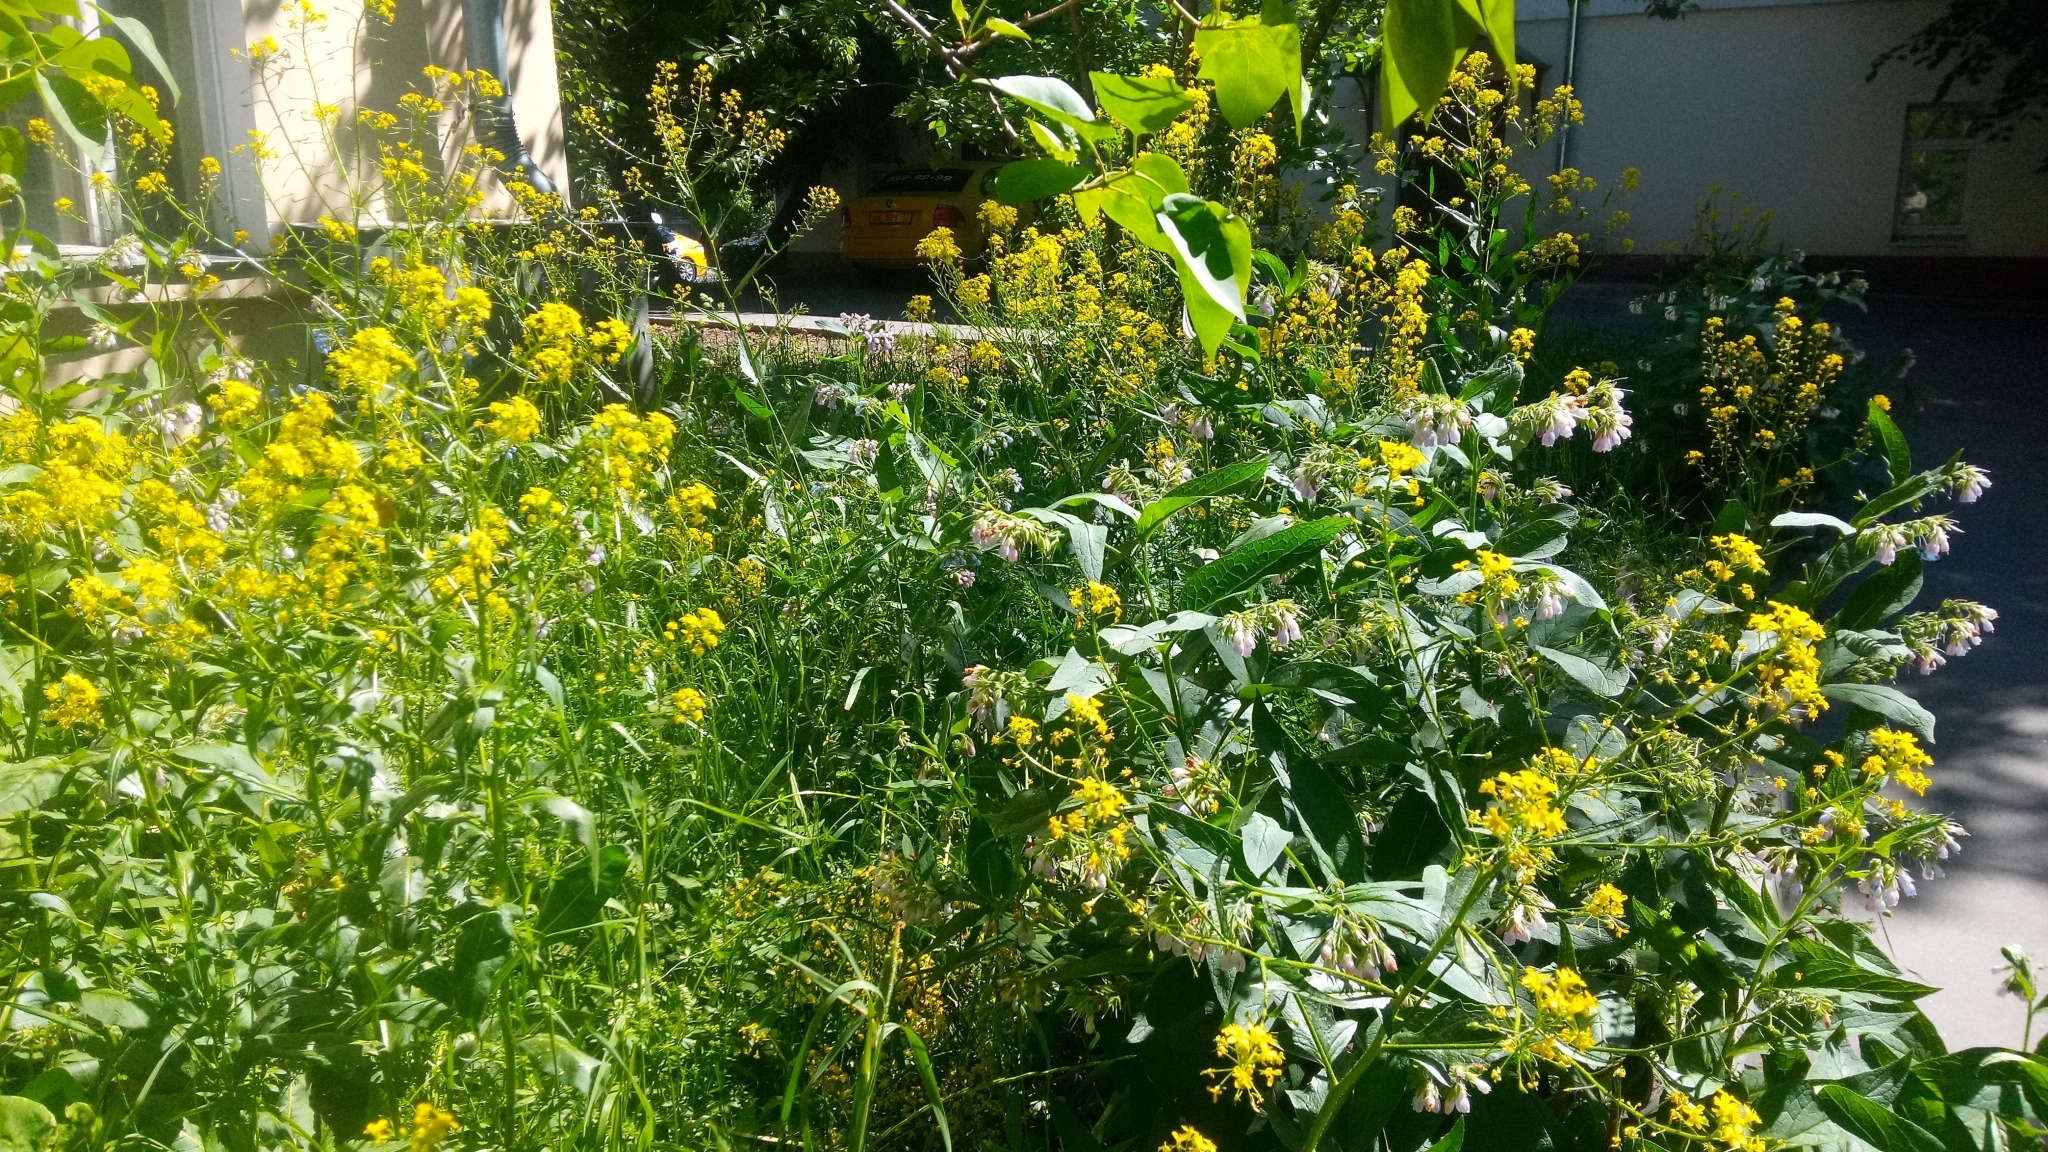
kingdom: Plantae
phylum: Tracheophyta
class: Magnoliopsida
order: Brassicales
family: Brassicaceae
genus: Bunias
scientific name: Bunias orientalis
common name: Warty-cabbage
